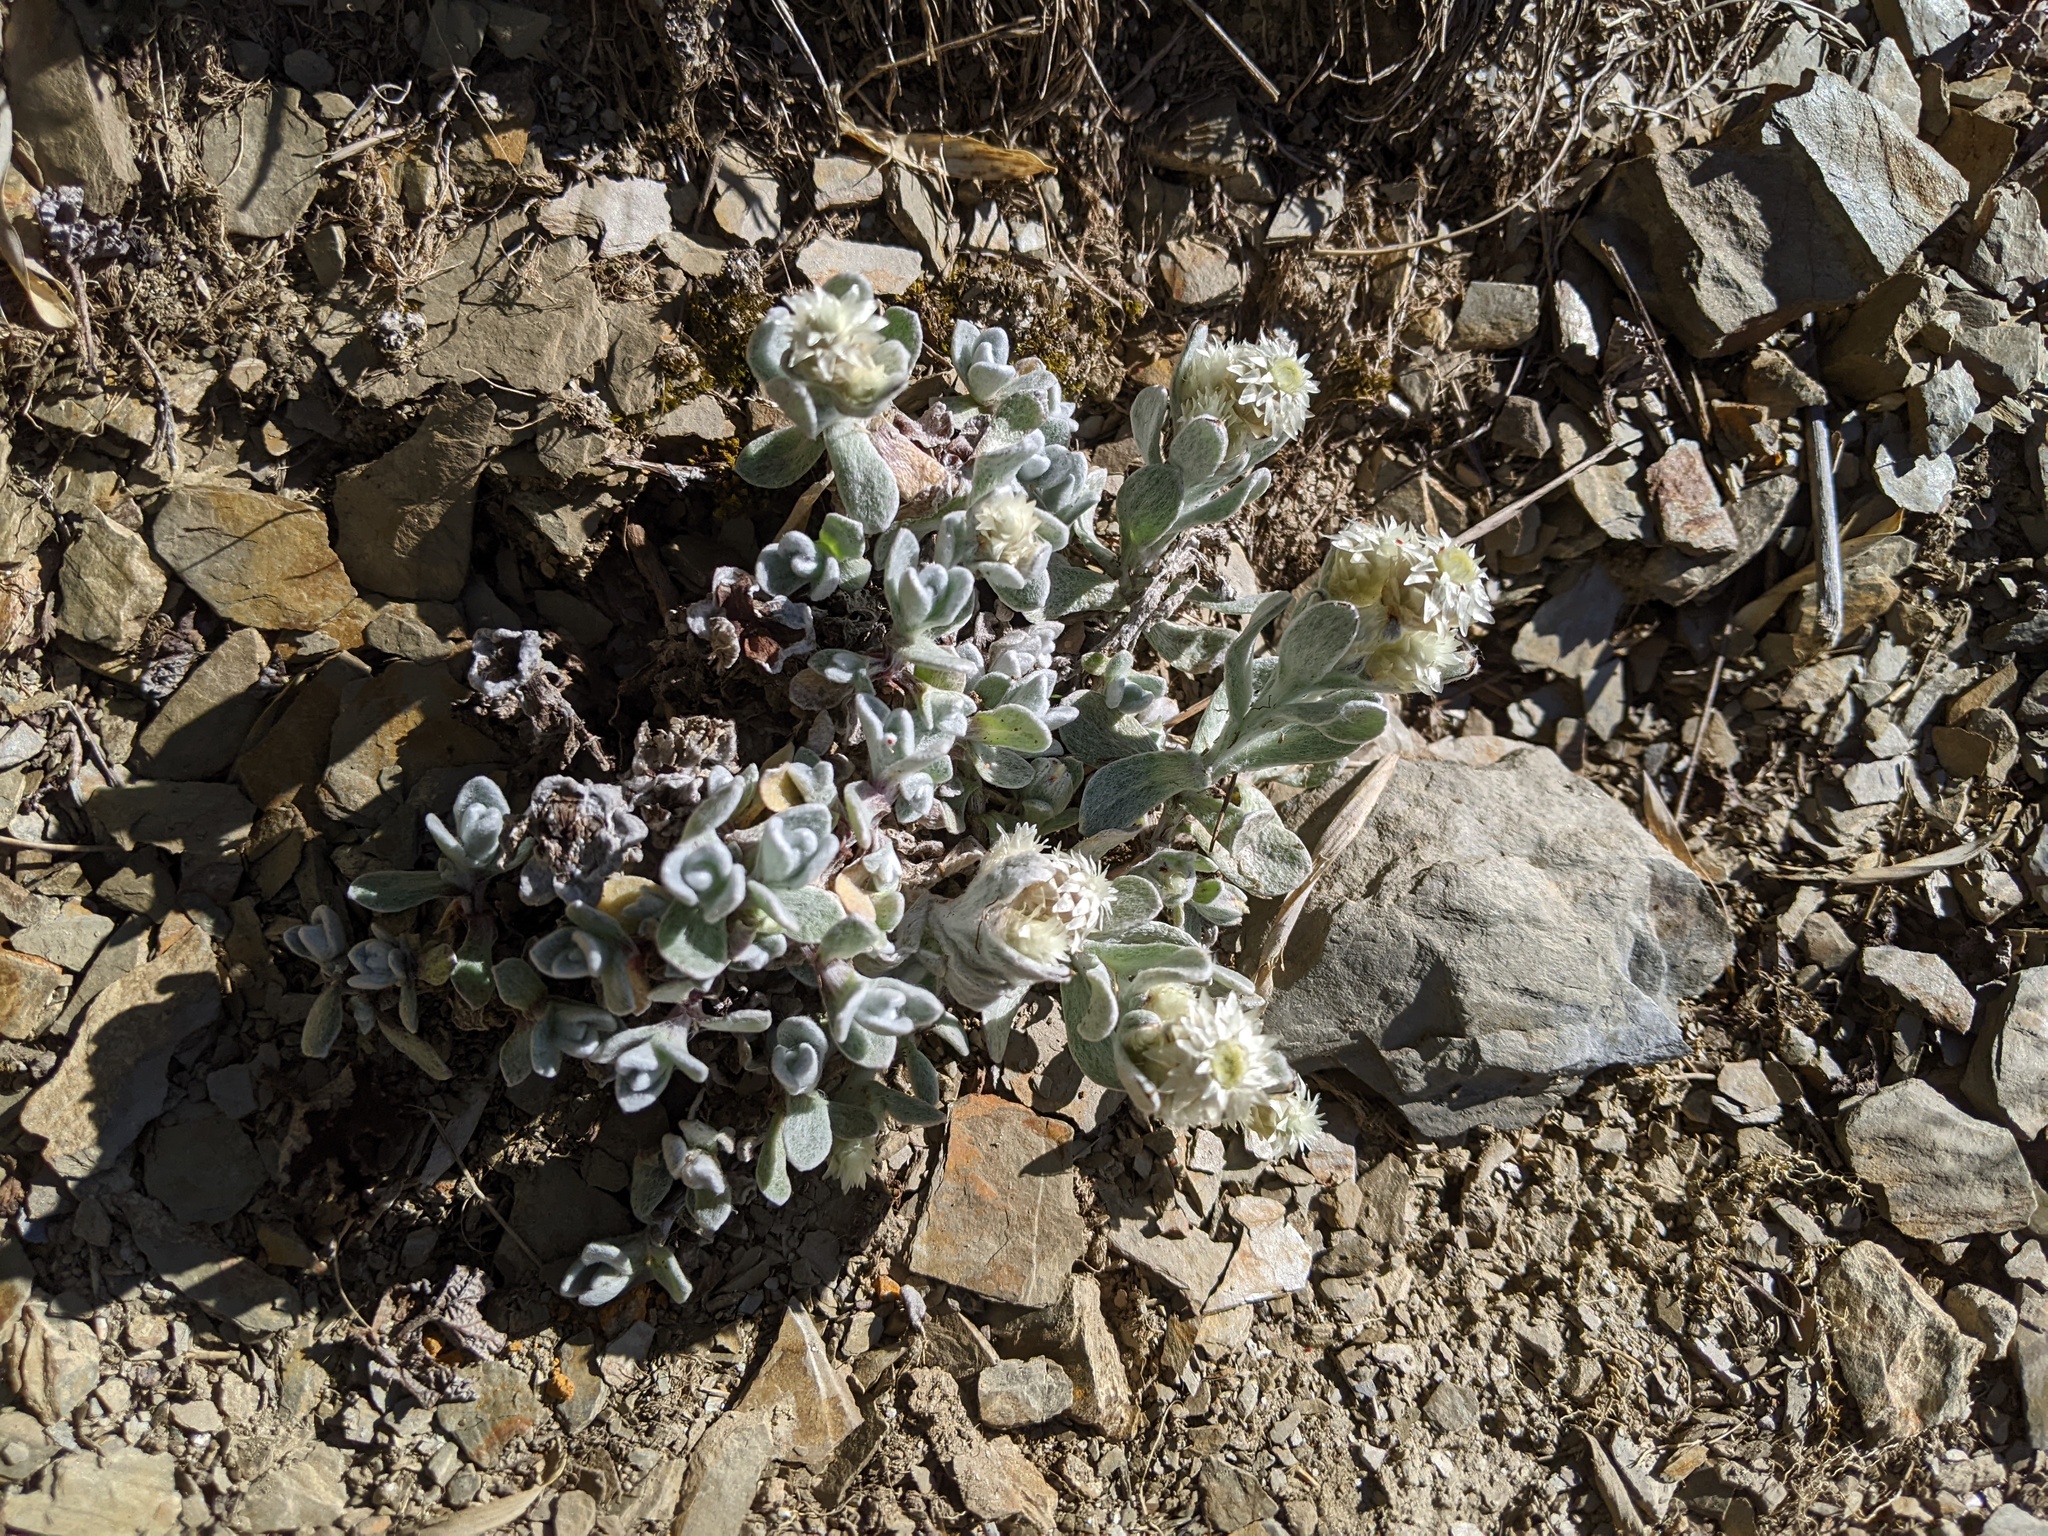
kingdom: Plantae
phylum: Tracheophyta
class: Magnoliopsida
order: Asterales
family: Asteraceae
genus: Anaphalis
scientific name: Anaphalis nepalensis
